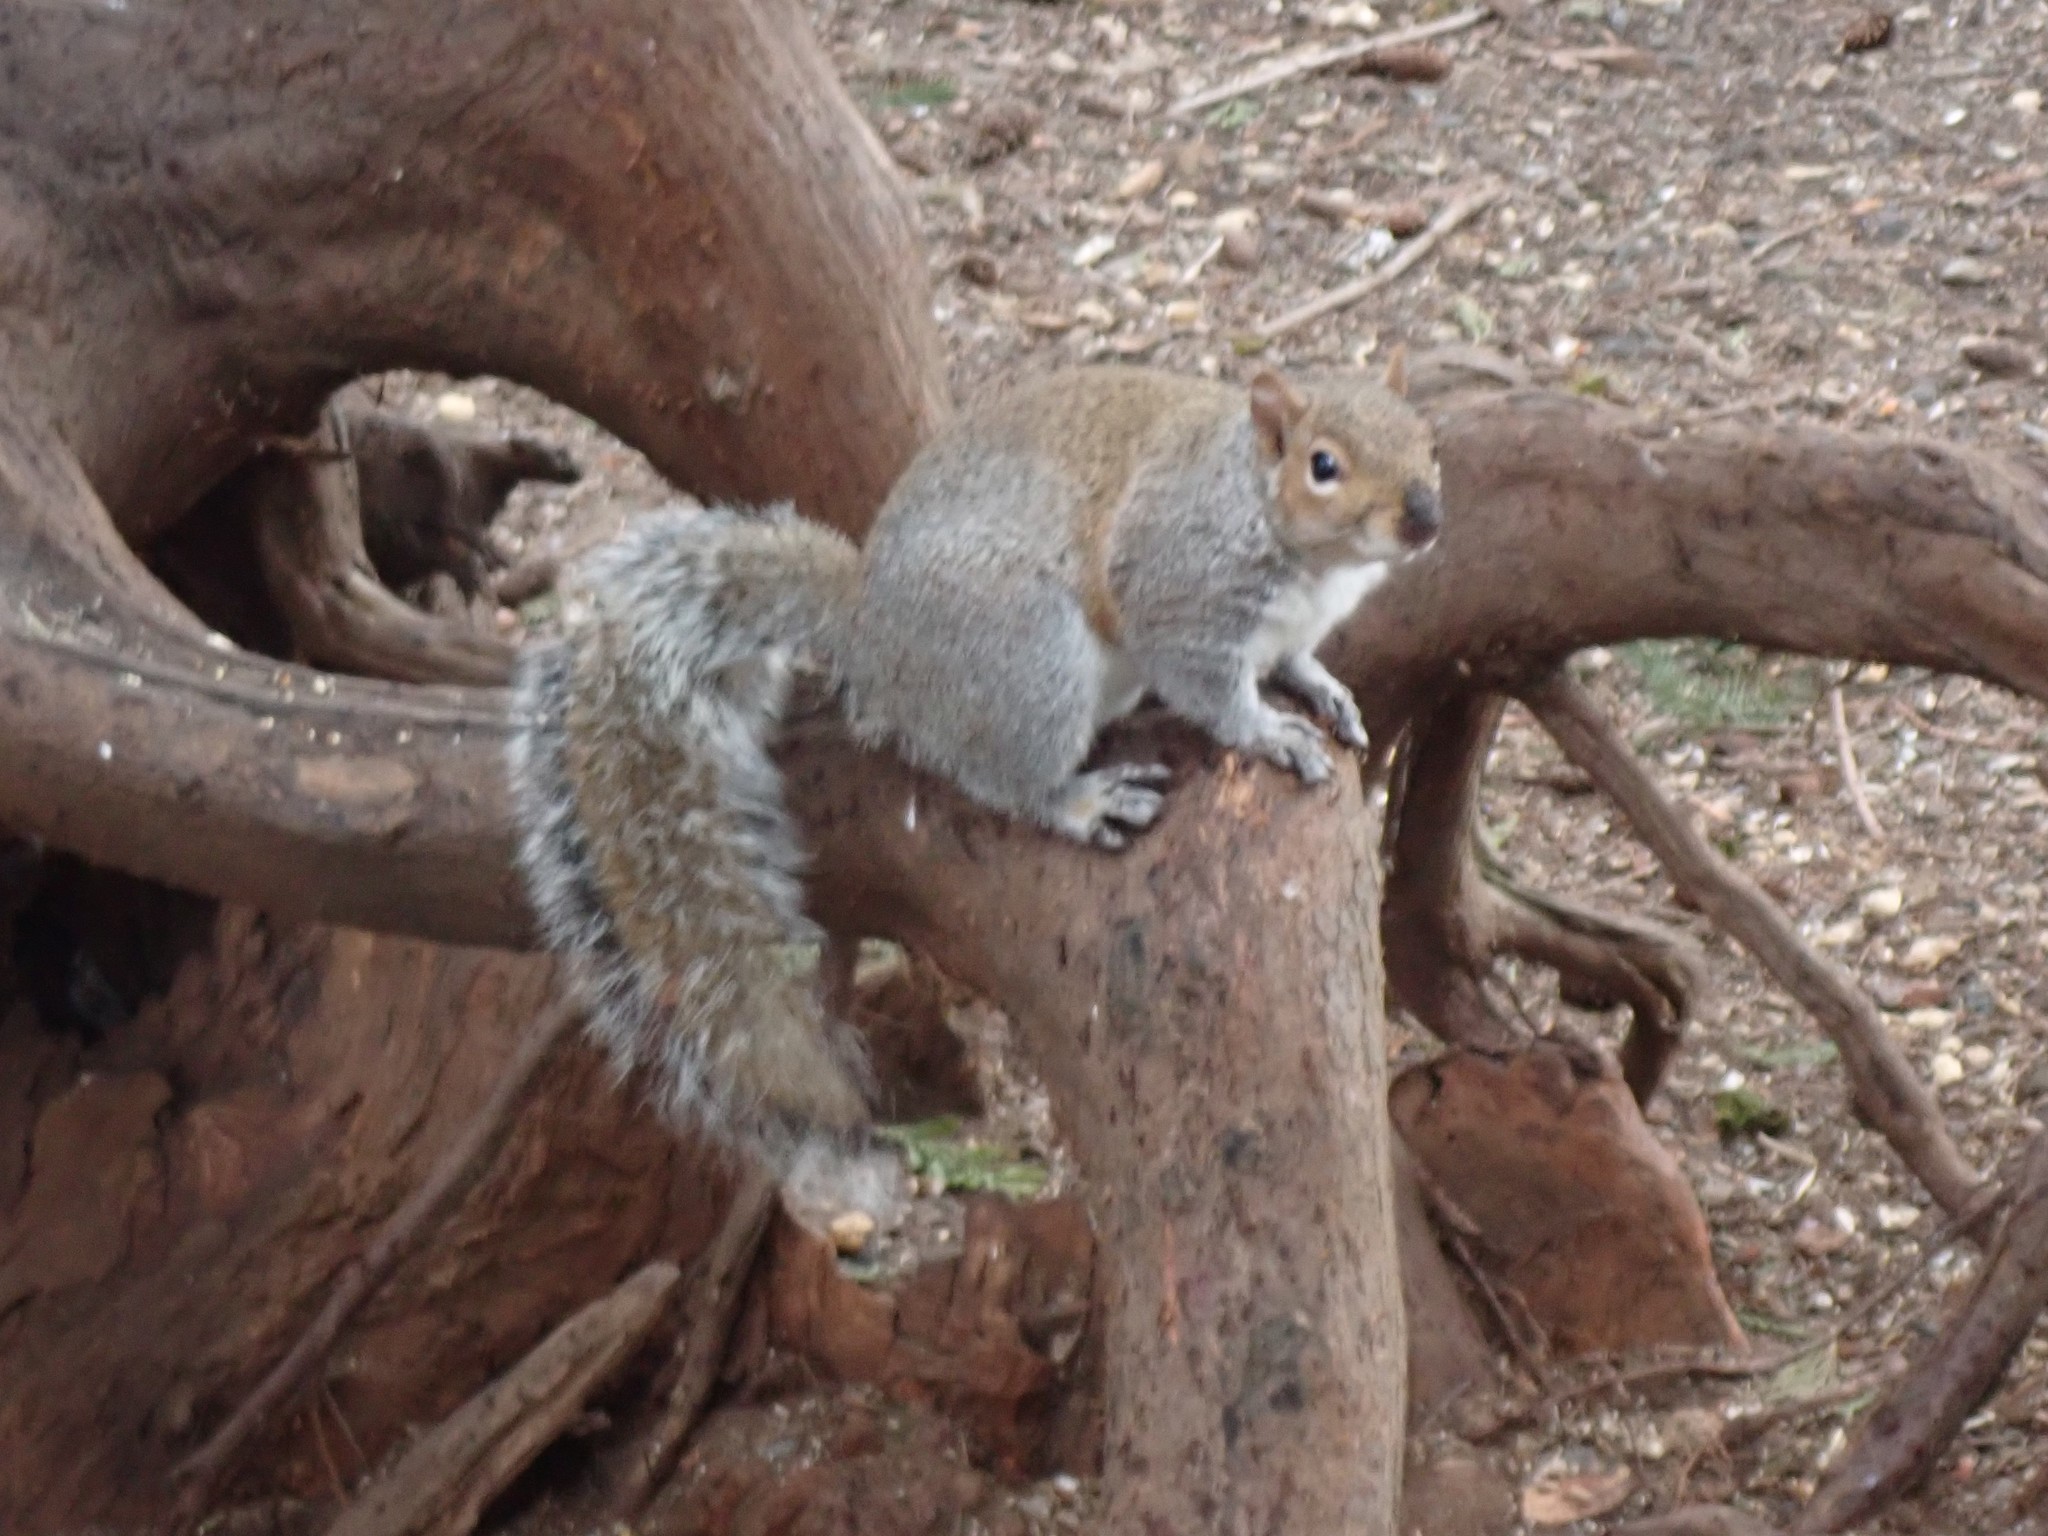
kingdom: Animalia
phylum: Chordata
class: Mammalia
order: Rodentia
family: Sciuridae
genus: Sciurus
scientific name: Sciurus carolinensis
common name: Eastern gray squirrel
